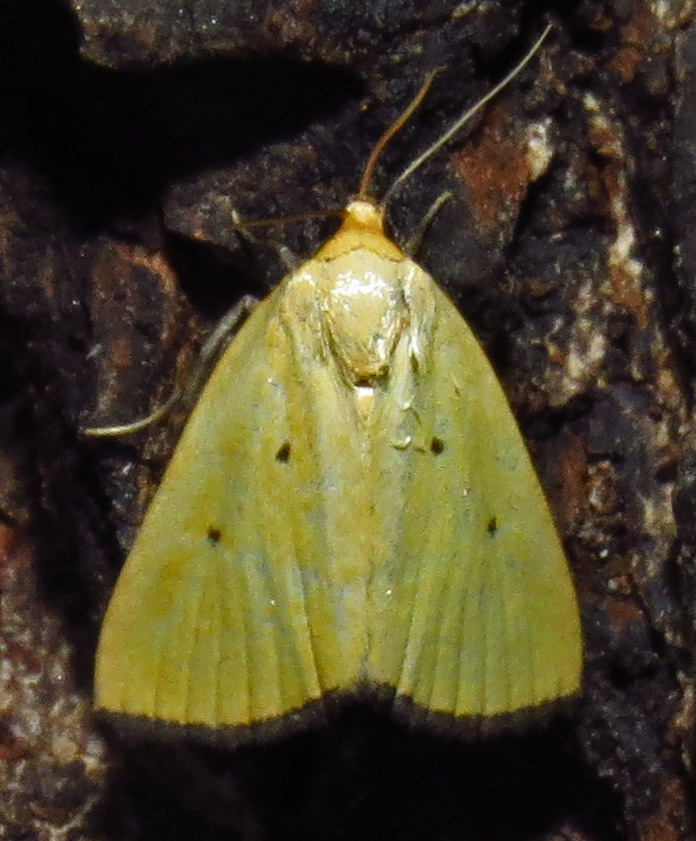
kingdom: Animalia
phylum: Arthropoda
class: Insecta
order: Lepidoptera
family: Noctuidae
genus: Marimatha
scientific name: Marimatha nigrofimbria
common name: Black-bordered lemon moth
